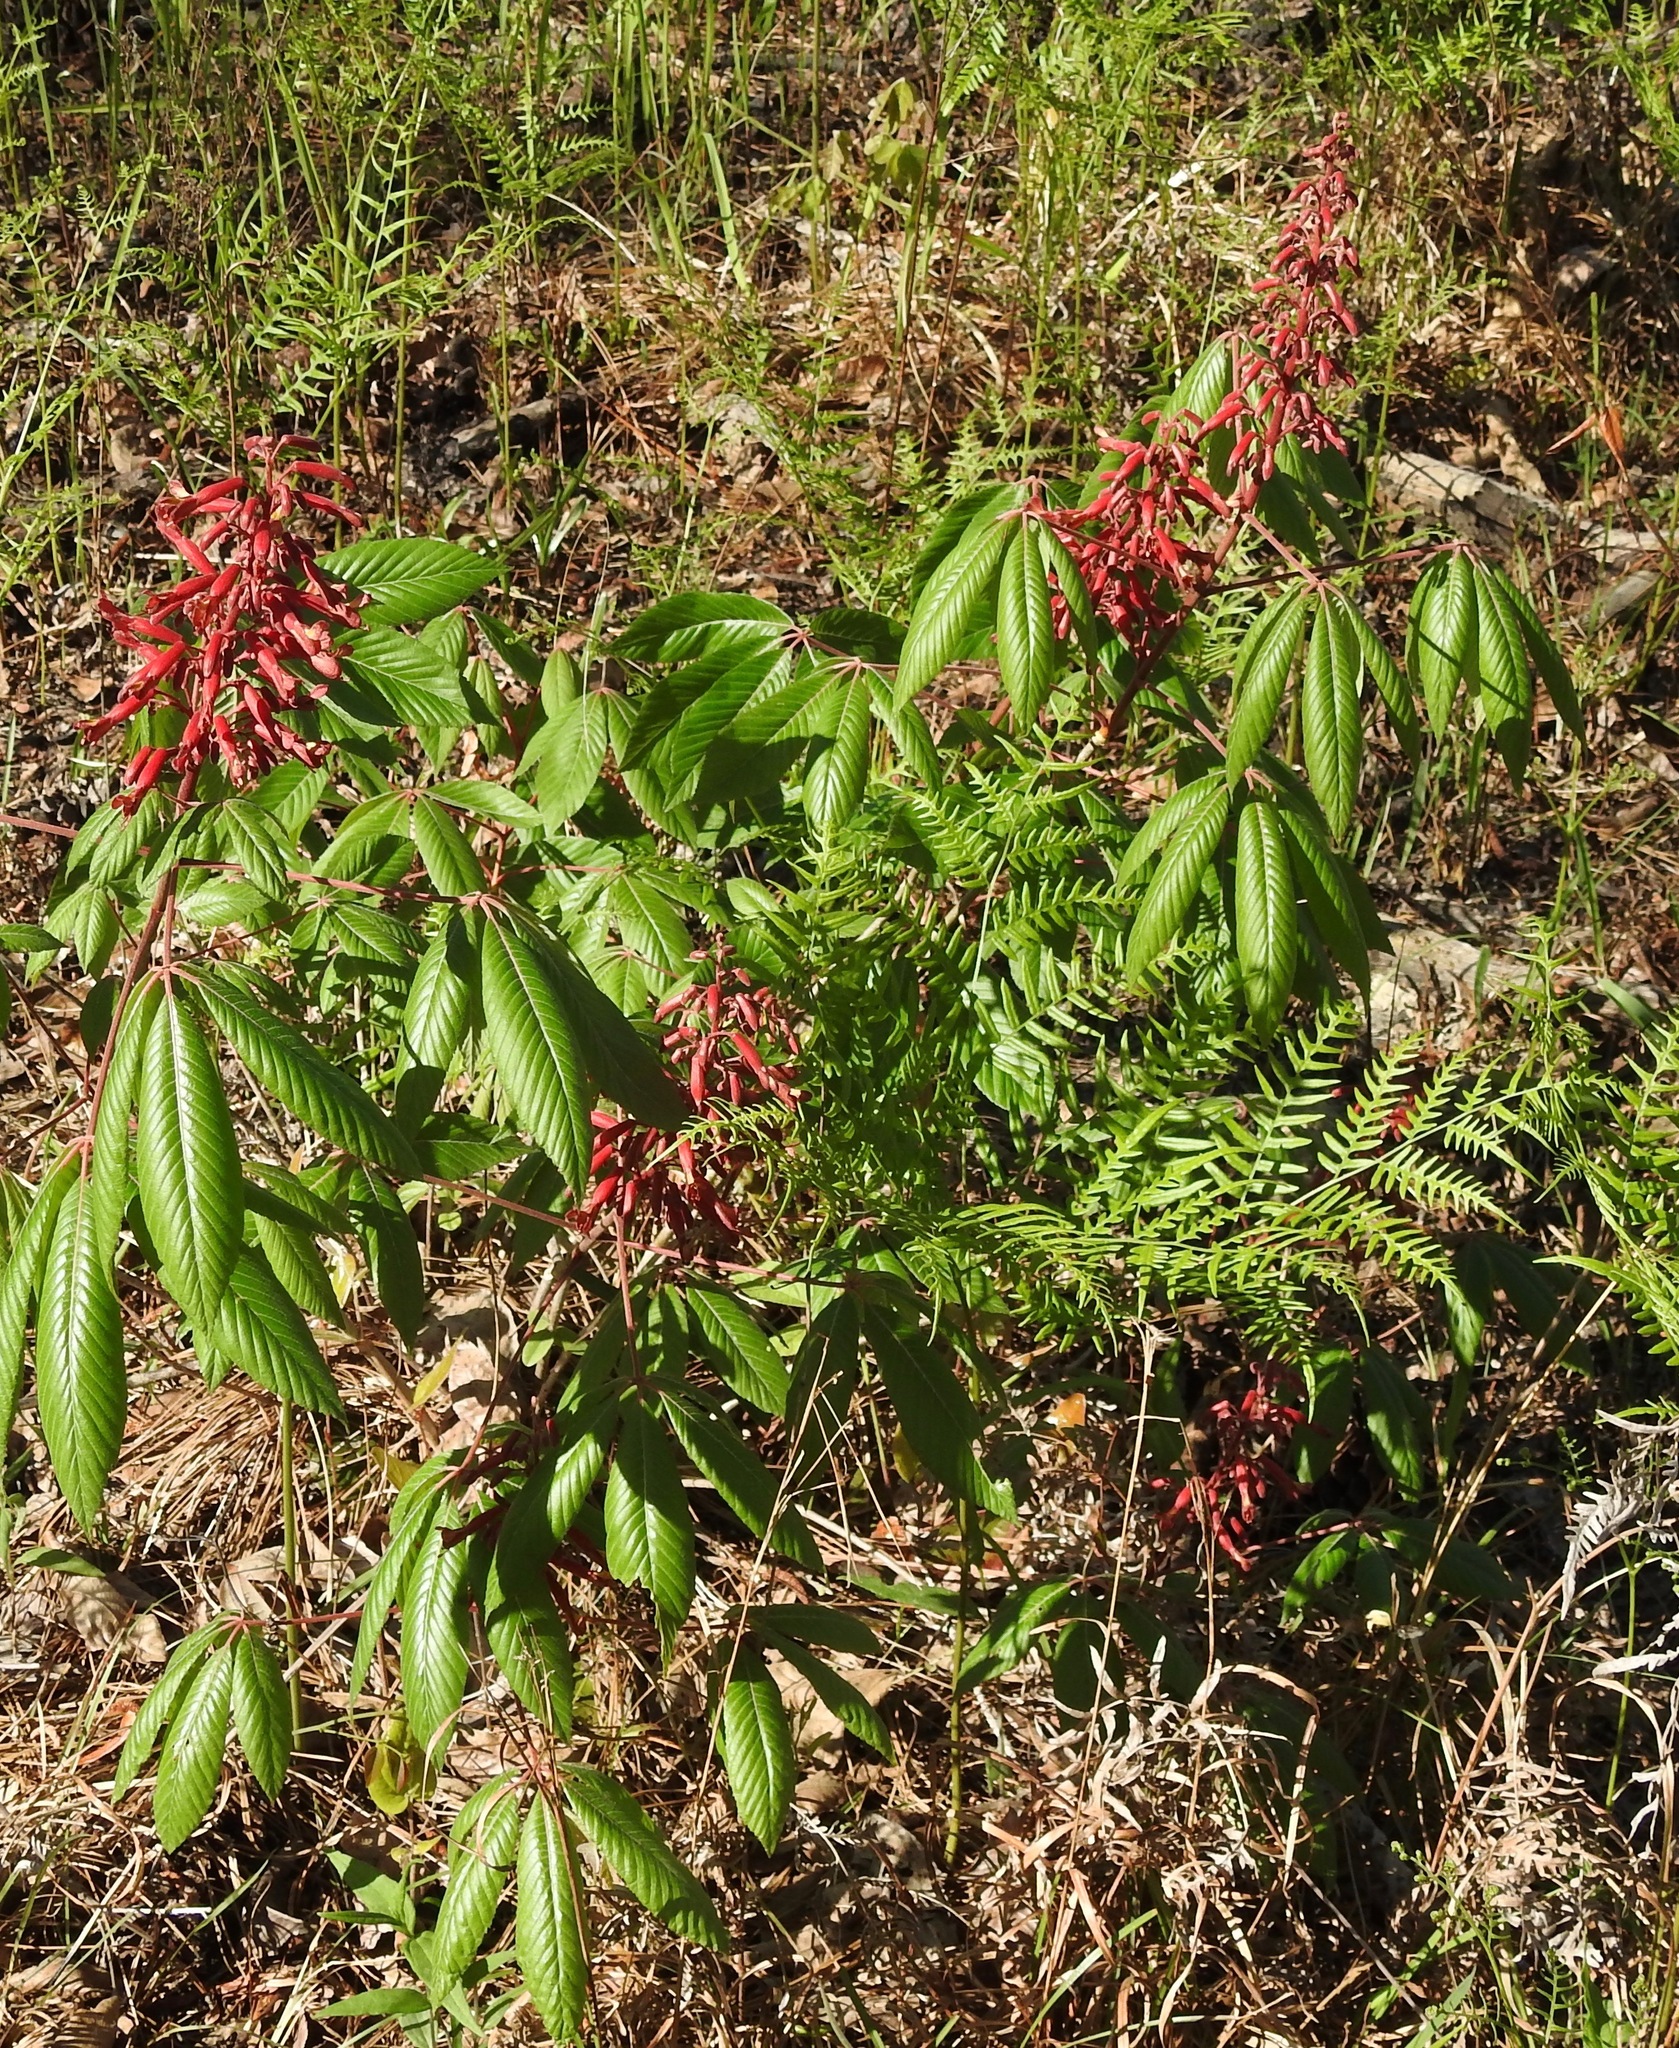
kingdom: Plantae
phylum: Tracheophyta
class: Magnoliopsida
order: Sapindales
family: Sapindaceae
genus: Aesculus
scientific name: Aesculus pavia
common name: Red buckeye
